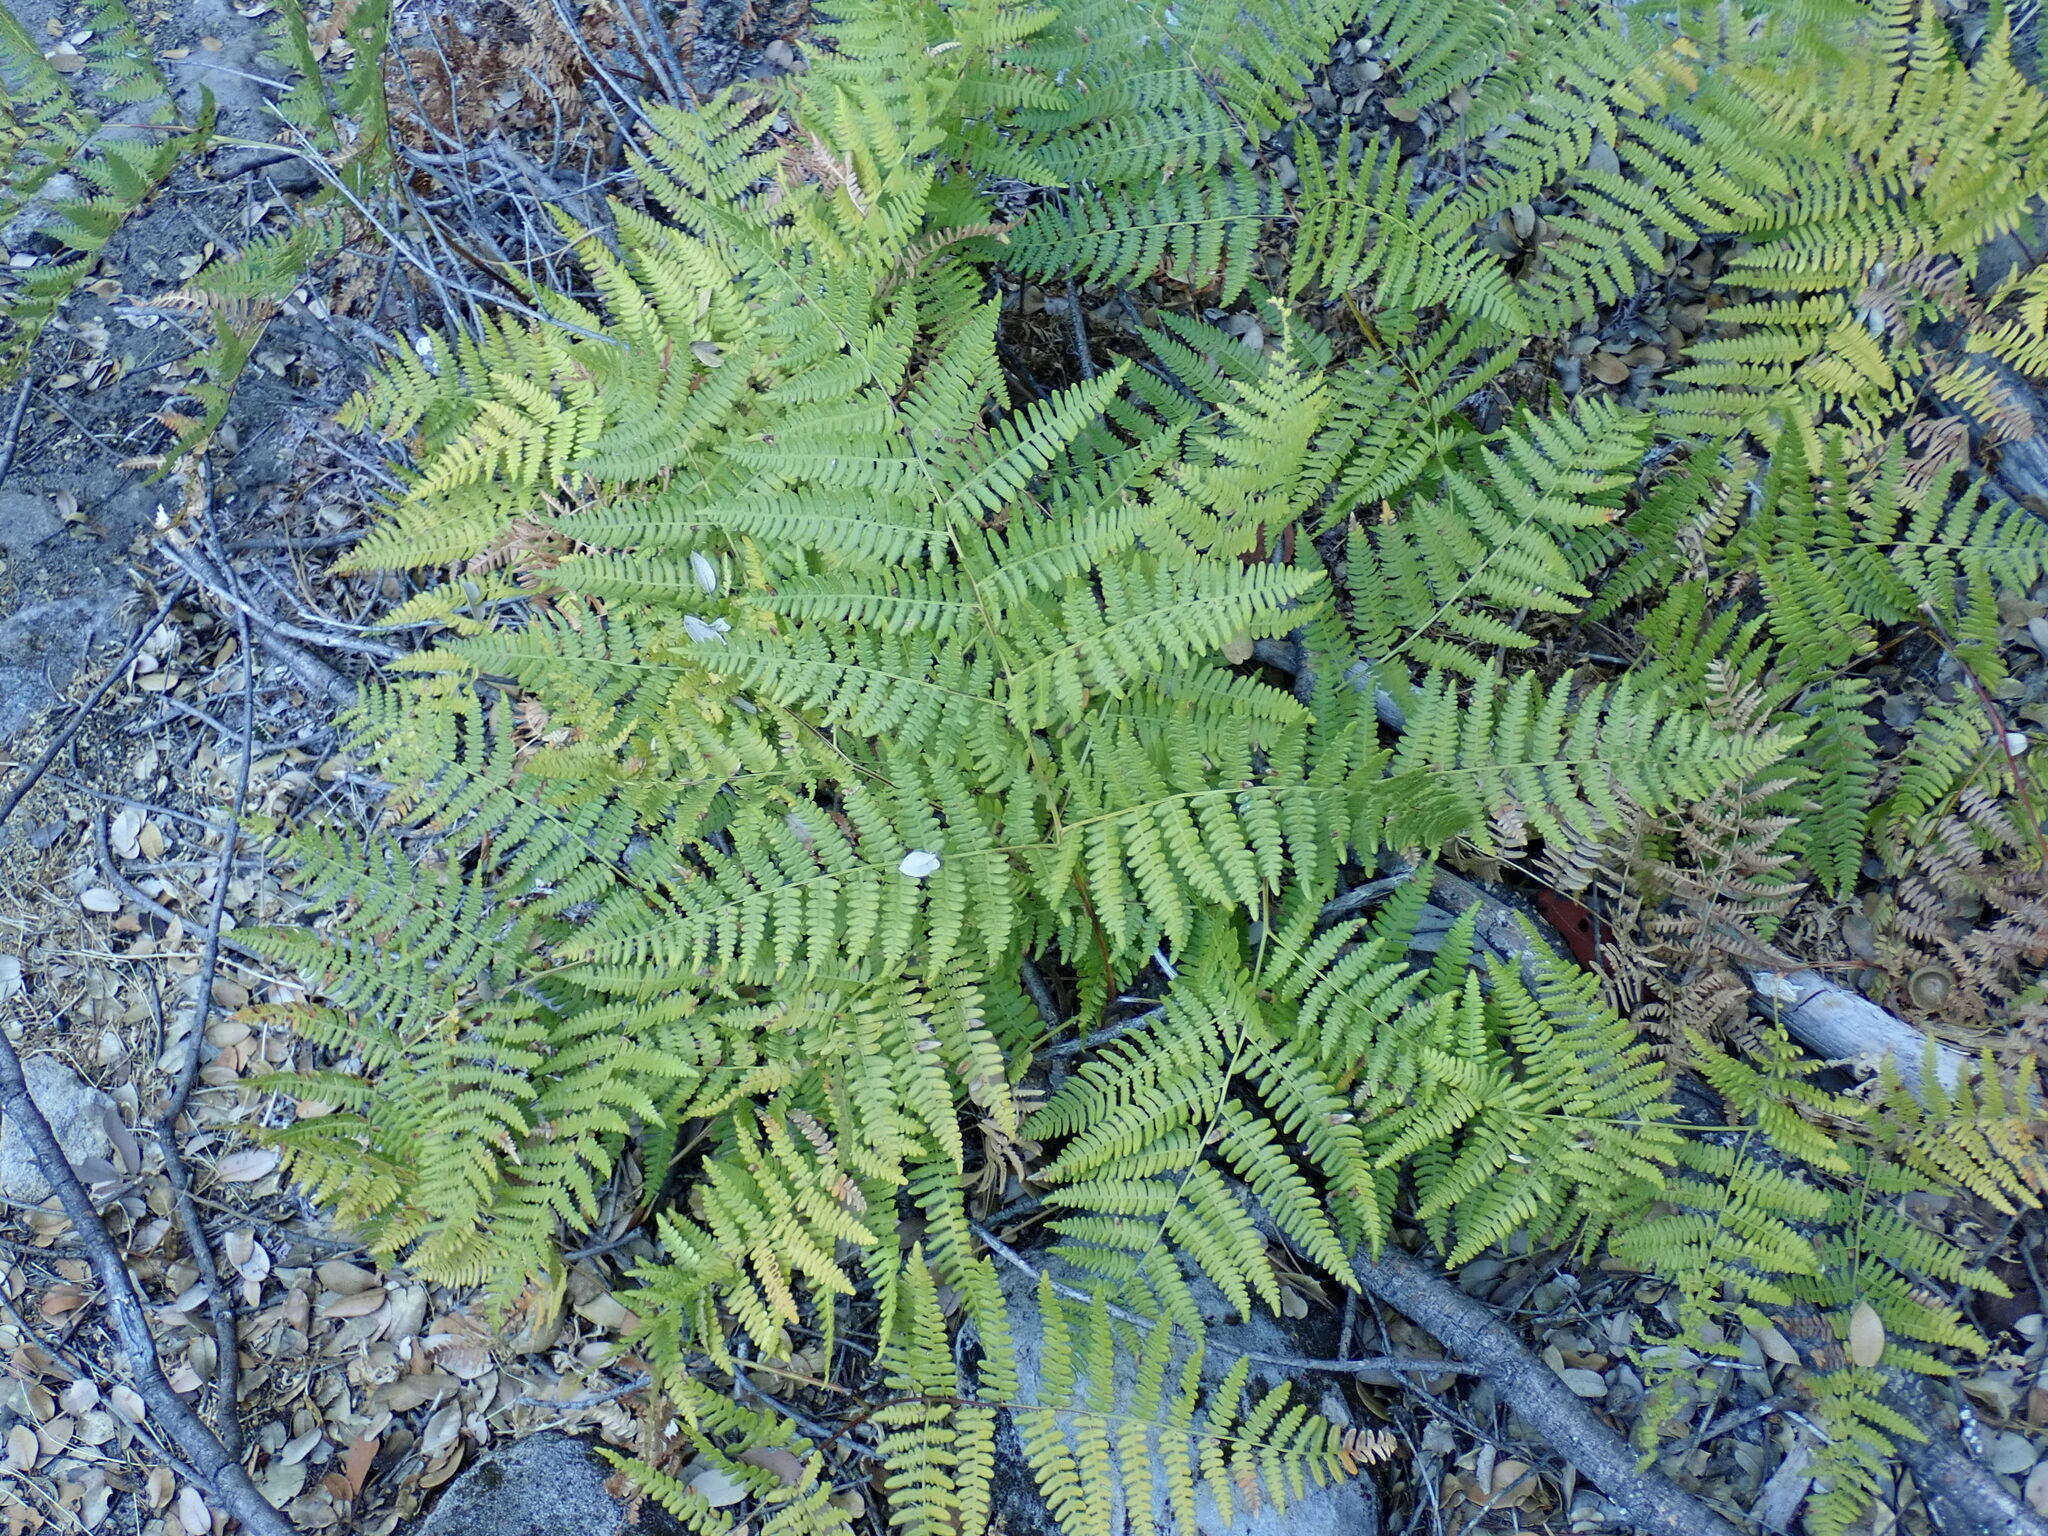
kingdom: Plantae
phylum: Tracheophyta
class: Polypodiopsida
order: Polypodiales
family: Dennstaedtiaceae
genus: Pteridium
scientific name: Pteridium aquilinum
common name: Bracken
